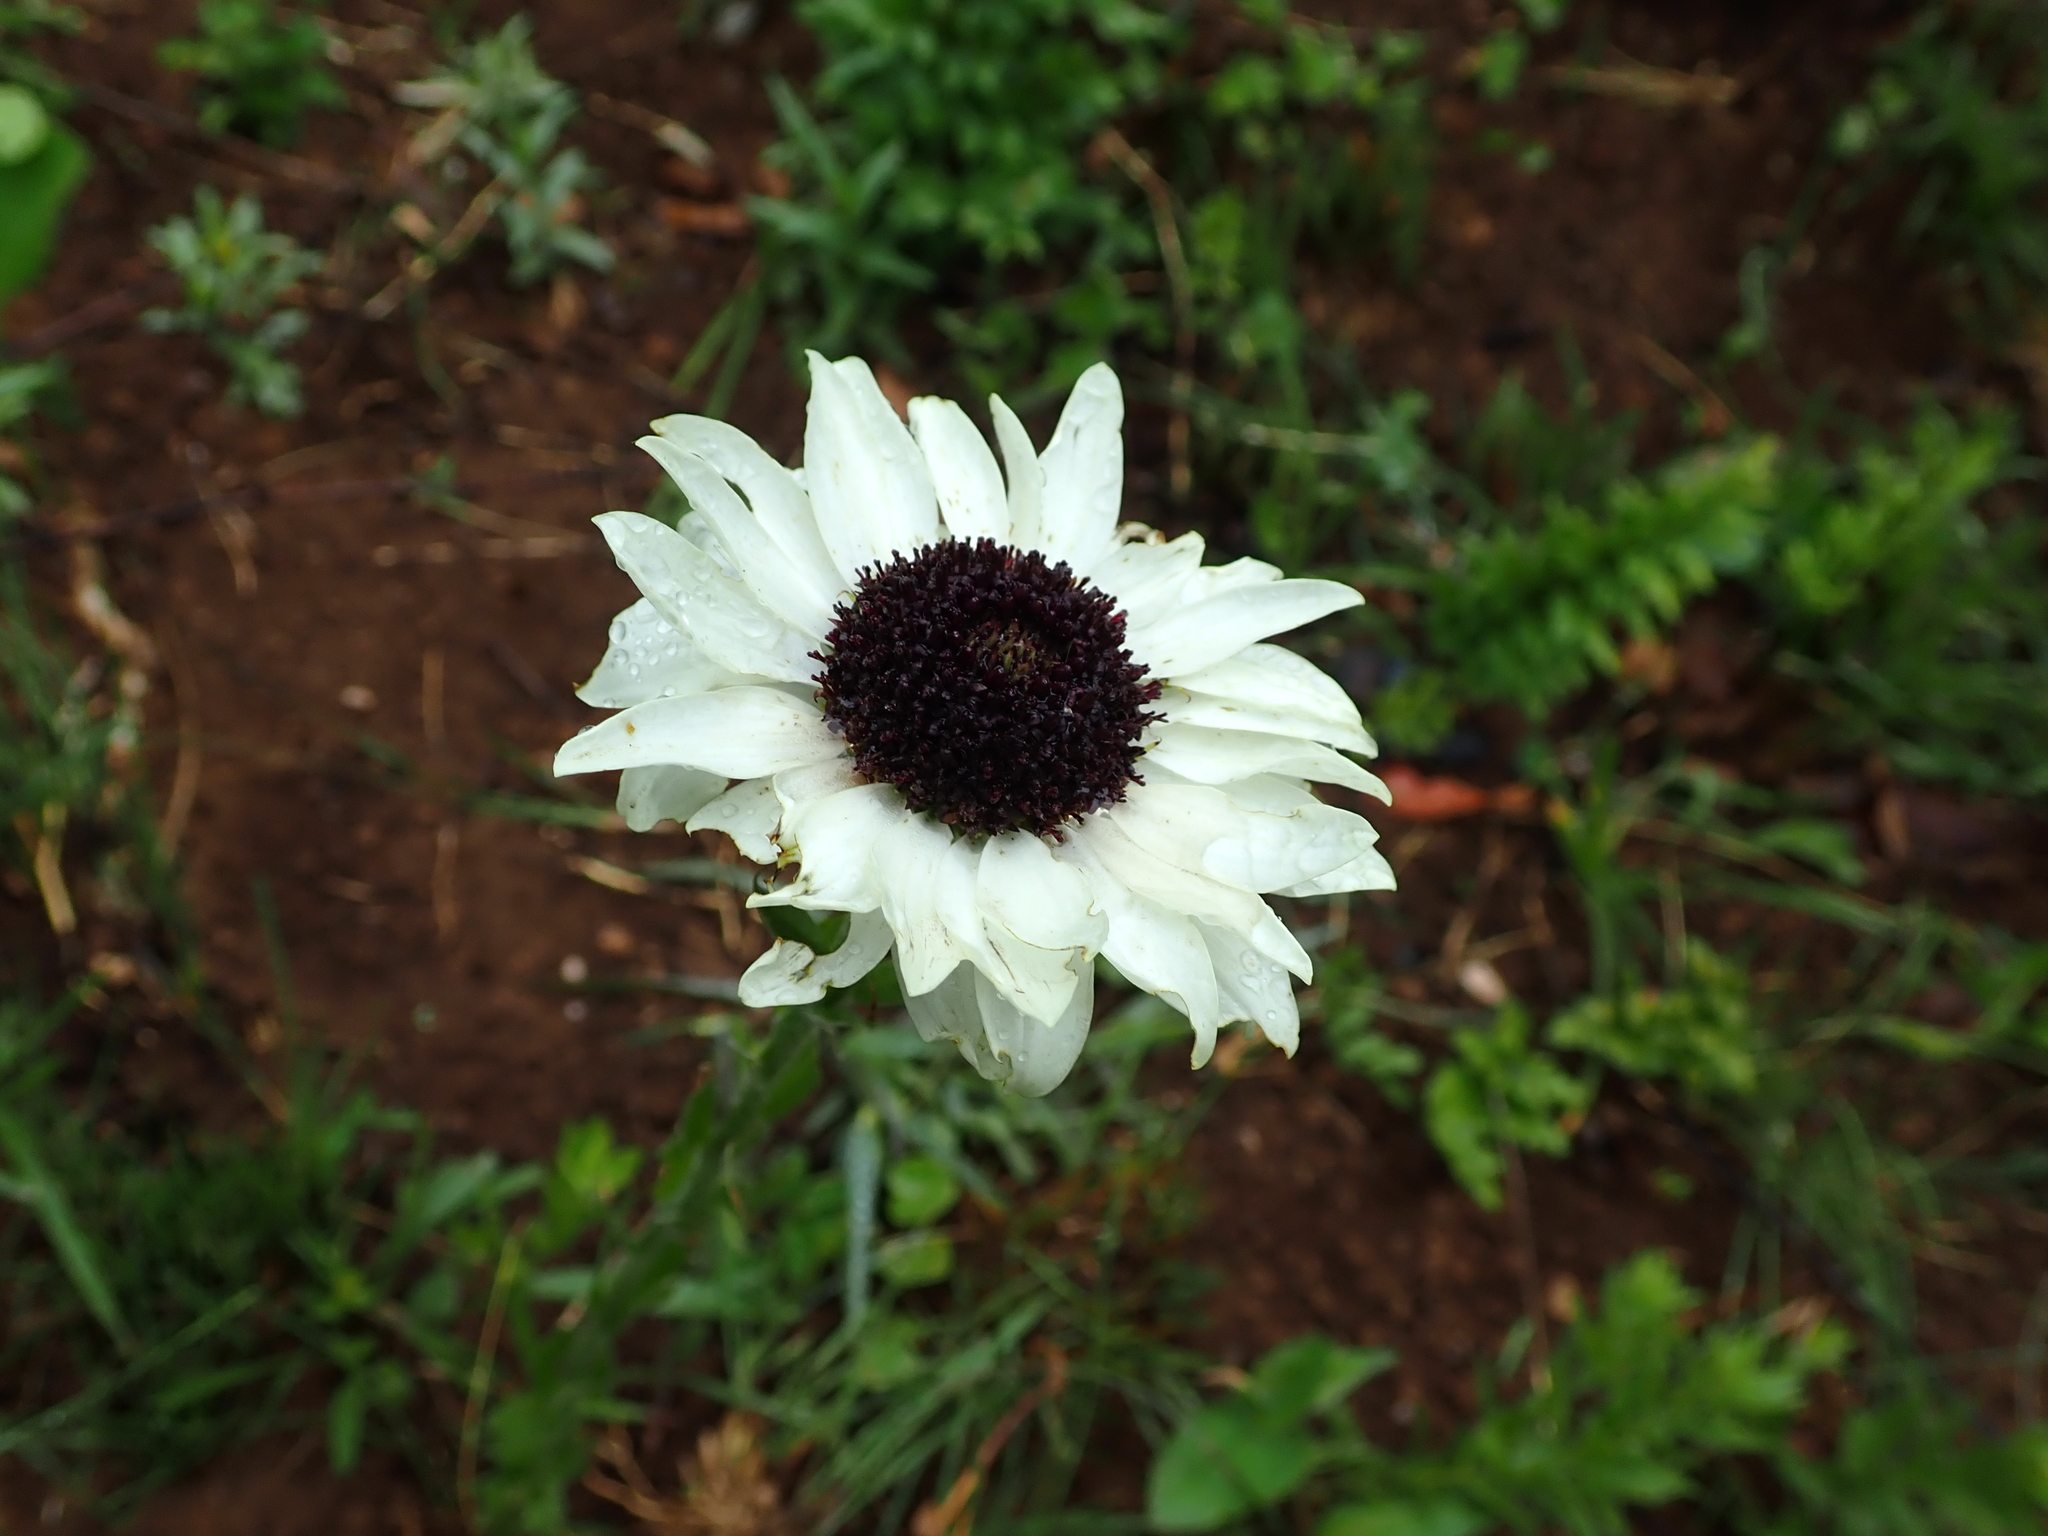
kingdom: Plantae
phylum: Tracheophyta
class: Magnoliopsida
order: Asterales
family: Asteraceae
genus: Callilepis
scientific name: Callilepis laureola
